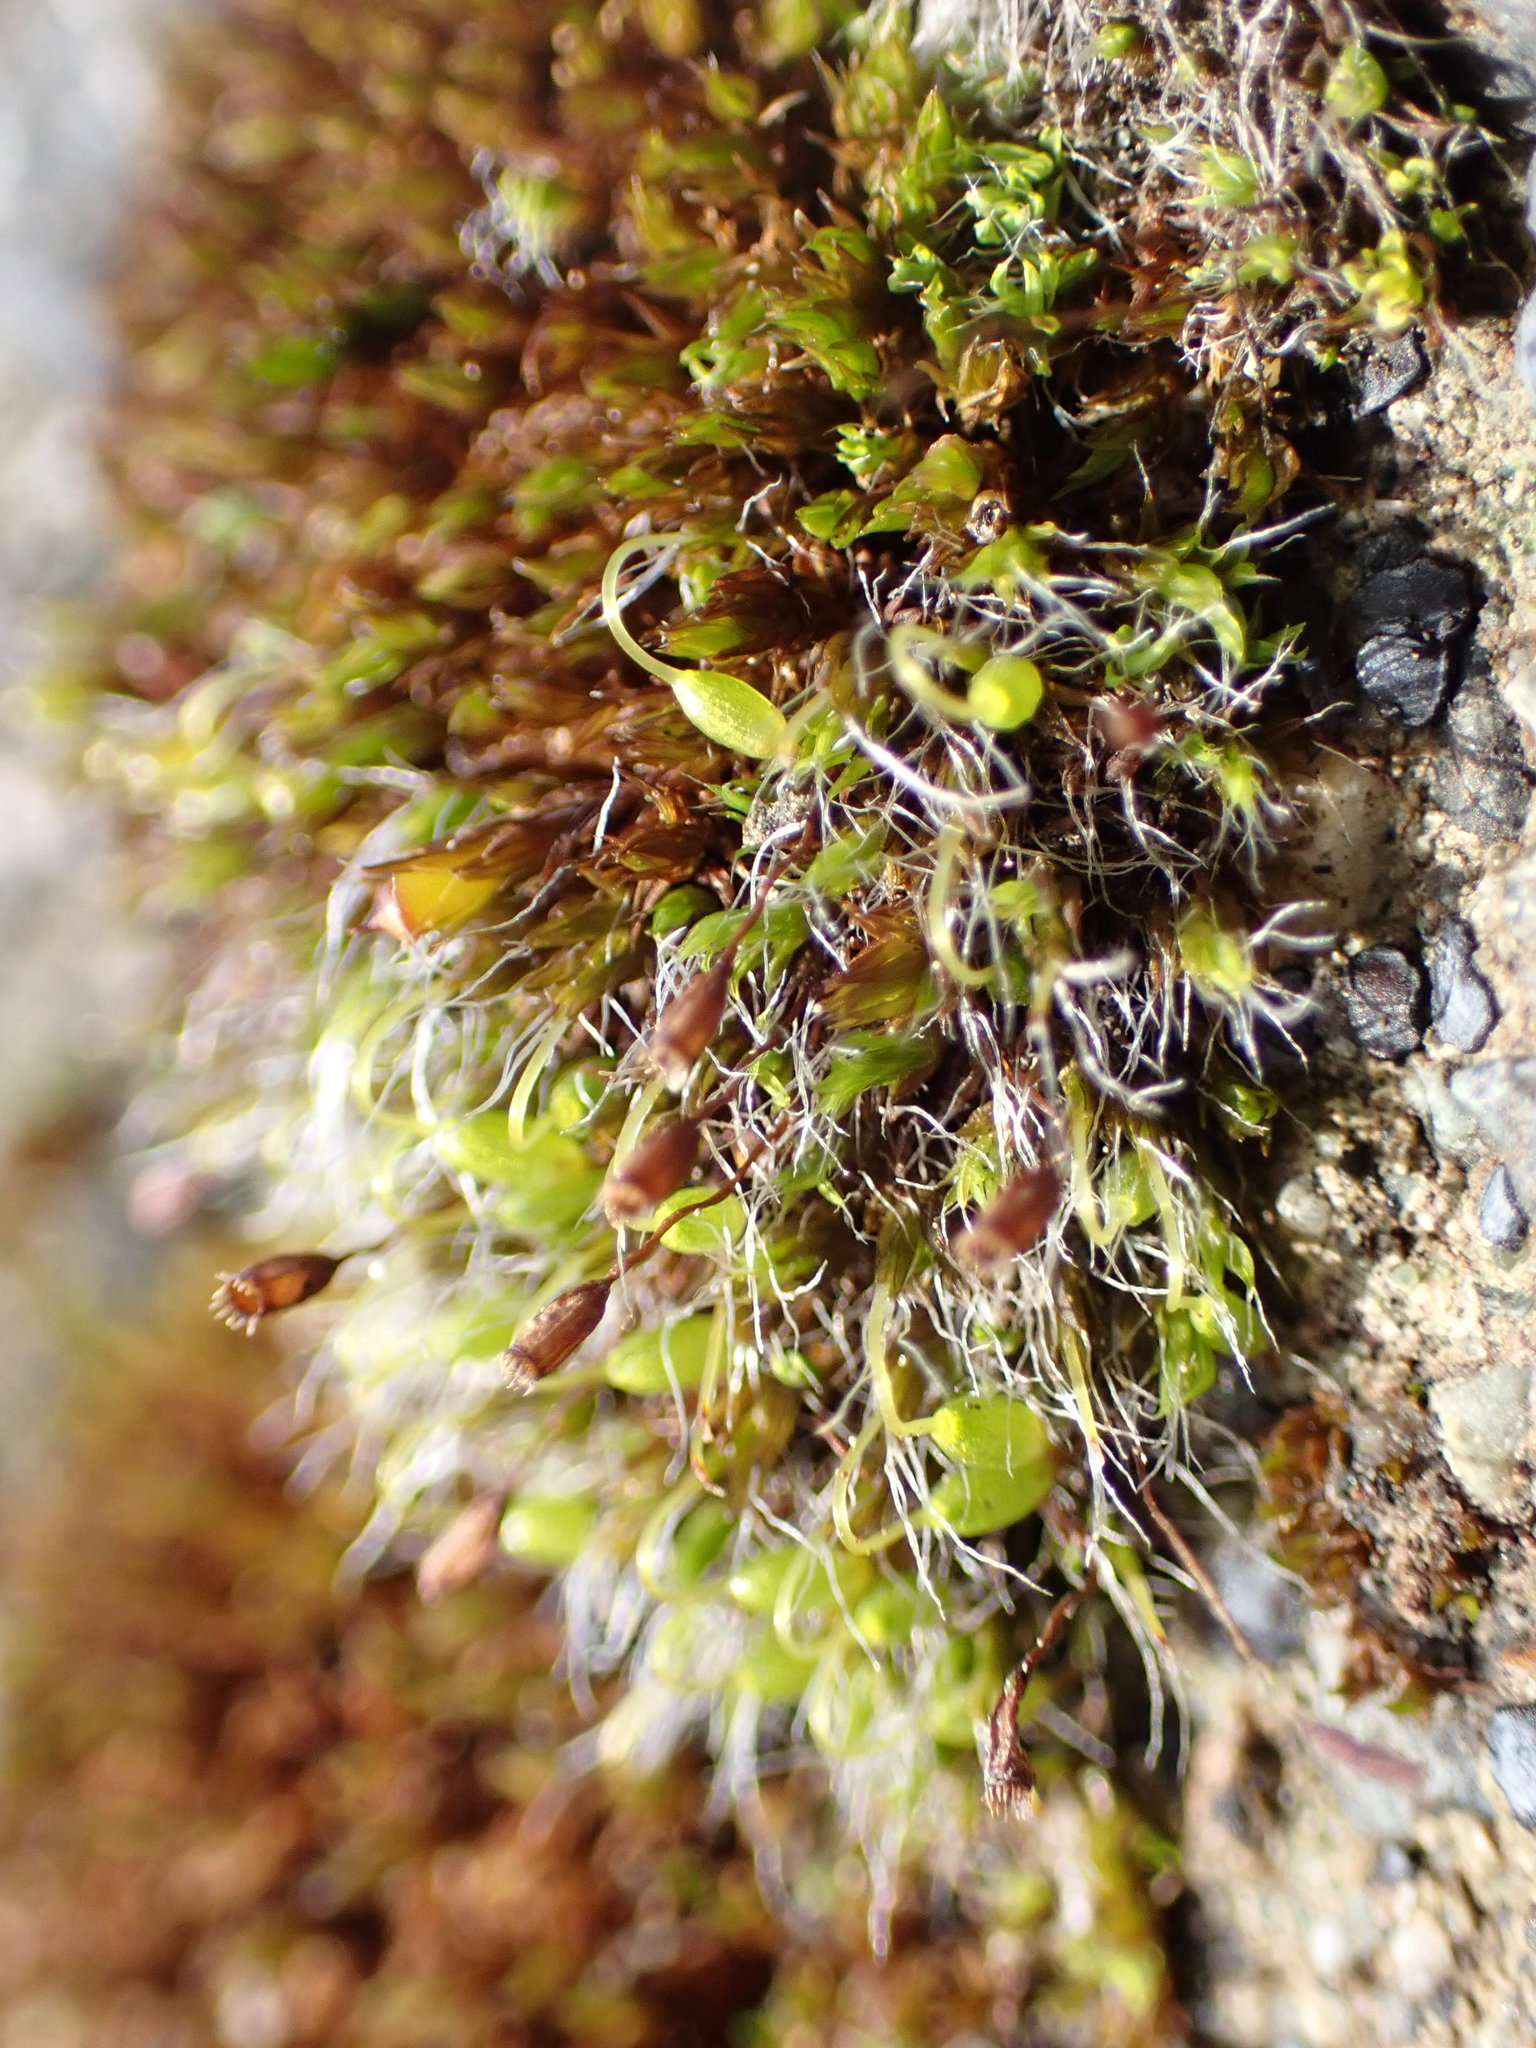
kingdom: Plantae
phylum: Bryophyta
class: Bryopsida
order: Grimmiales
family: Grimmiaceae
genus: Grimmia
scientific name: Grimmia pulvinata
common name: Grey-cushioned grimmia
